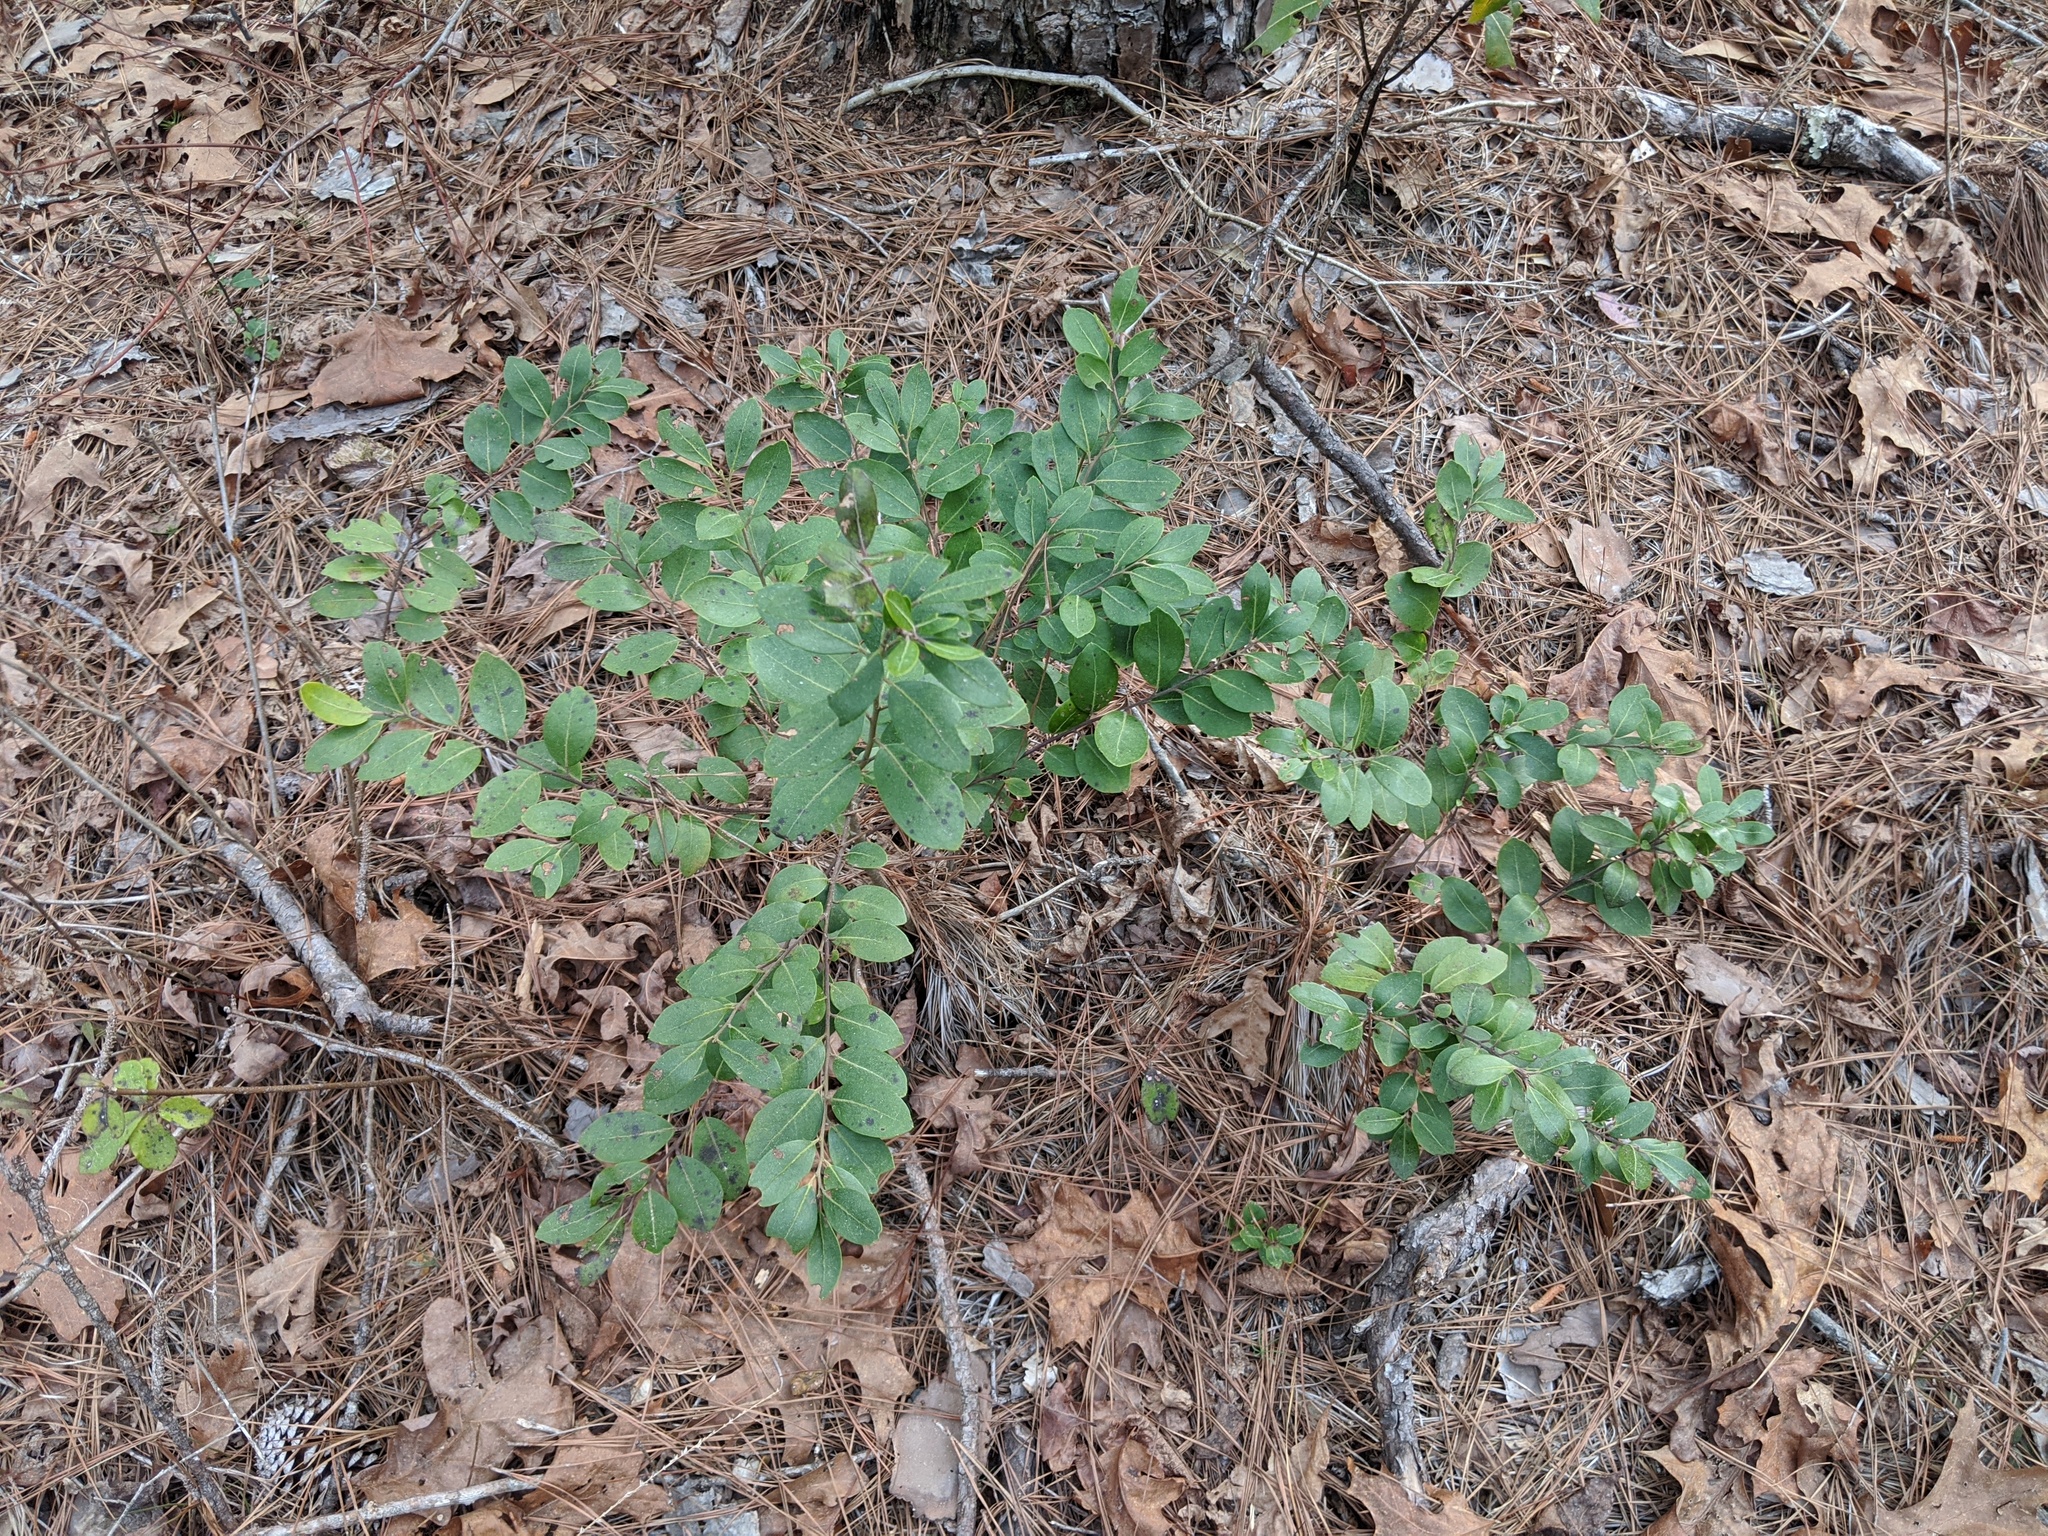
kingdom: Plantae
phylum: Tracheophyta
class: Magnoliopsida
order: Aquifoliales
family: Aquifoliaceae
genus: Ilex
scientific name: Ilex glabra
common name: Bitter gallberry
